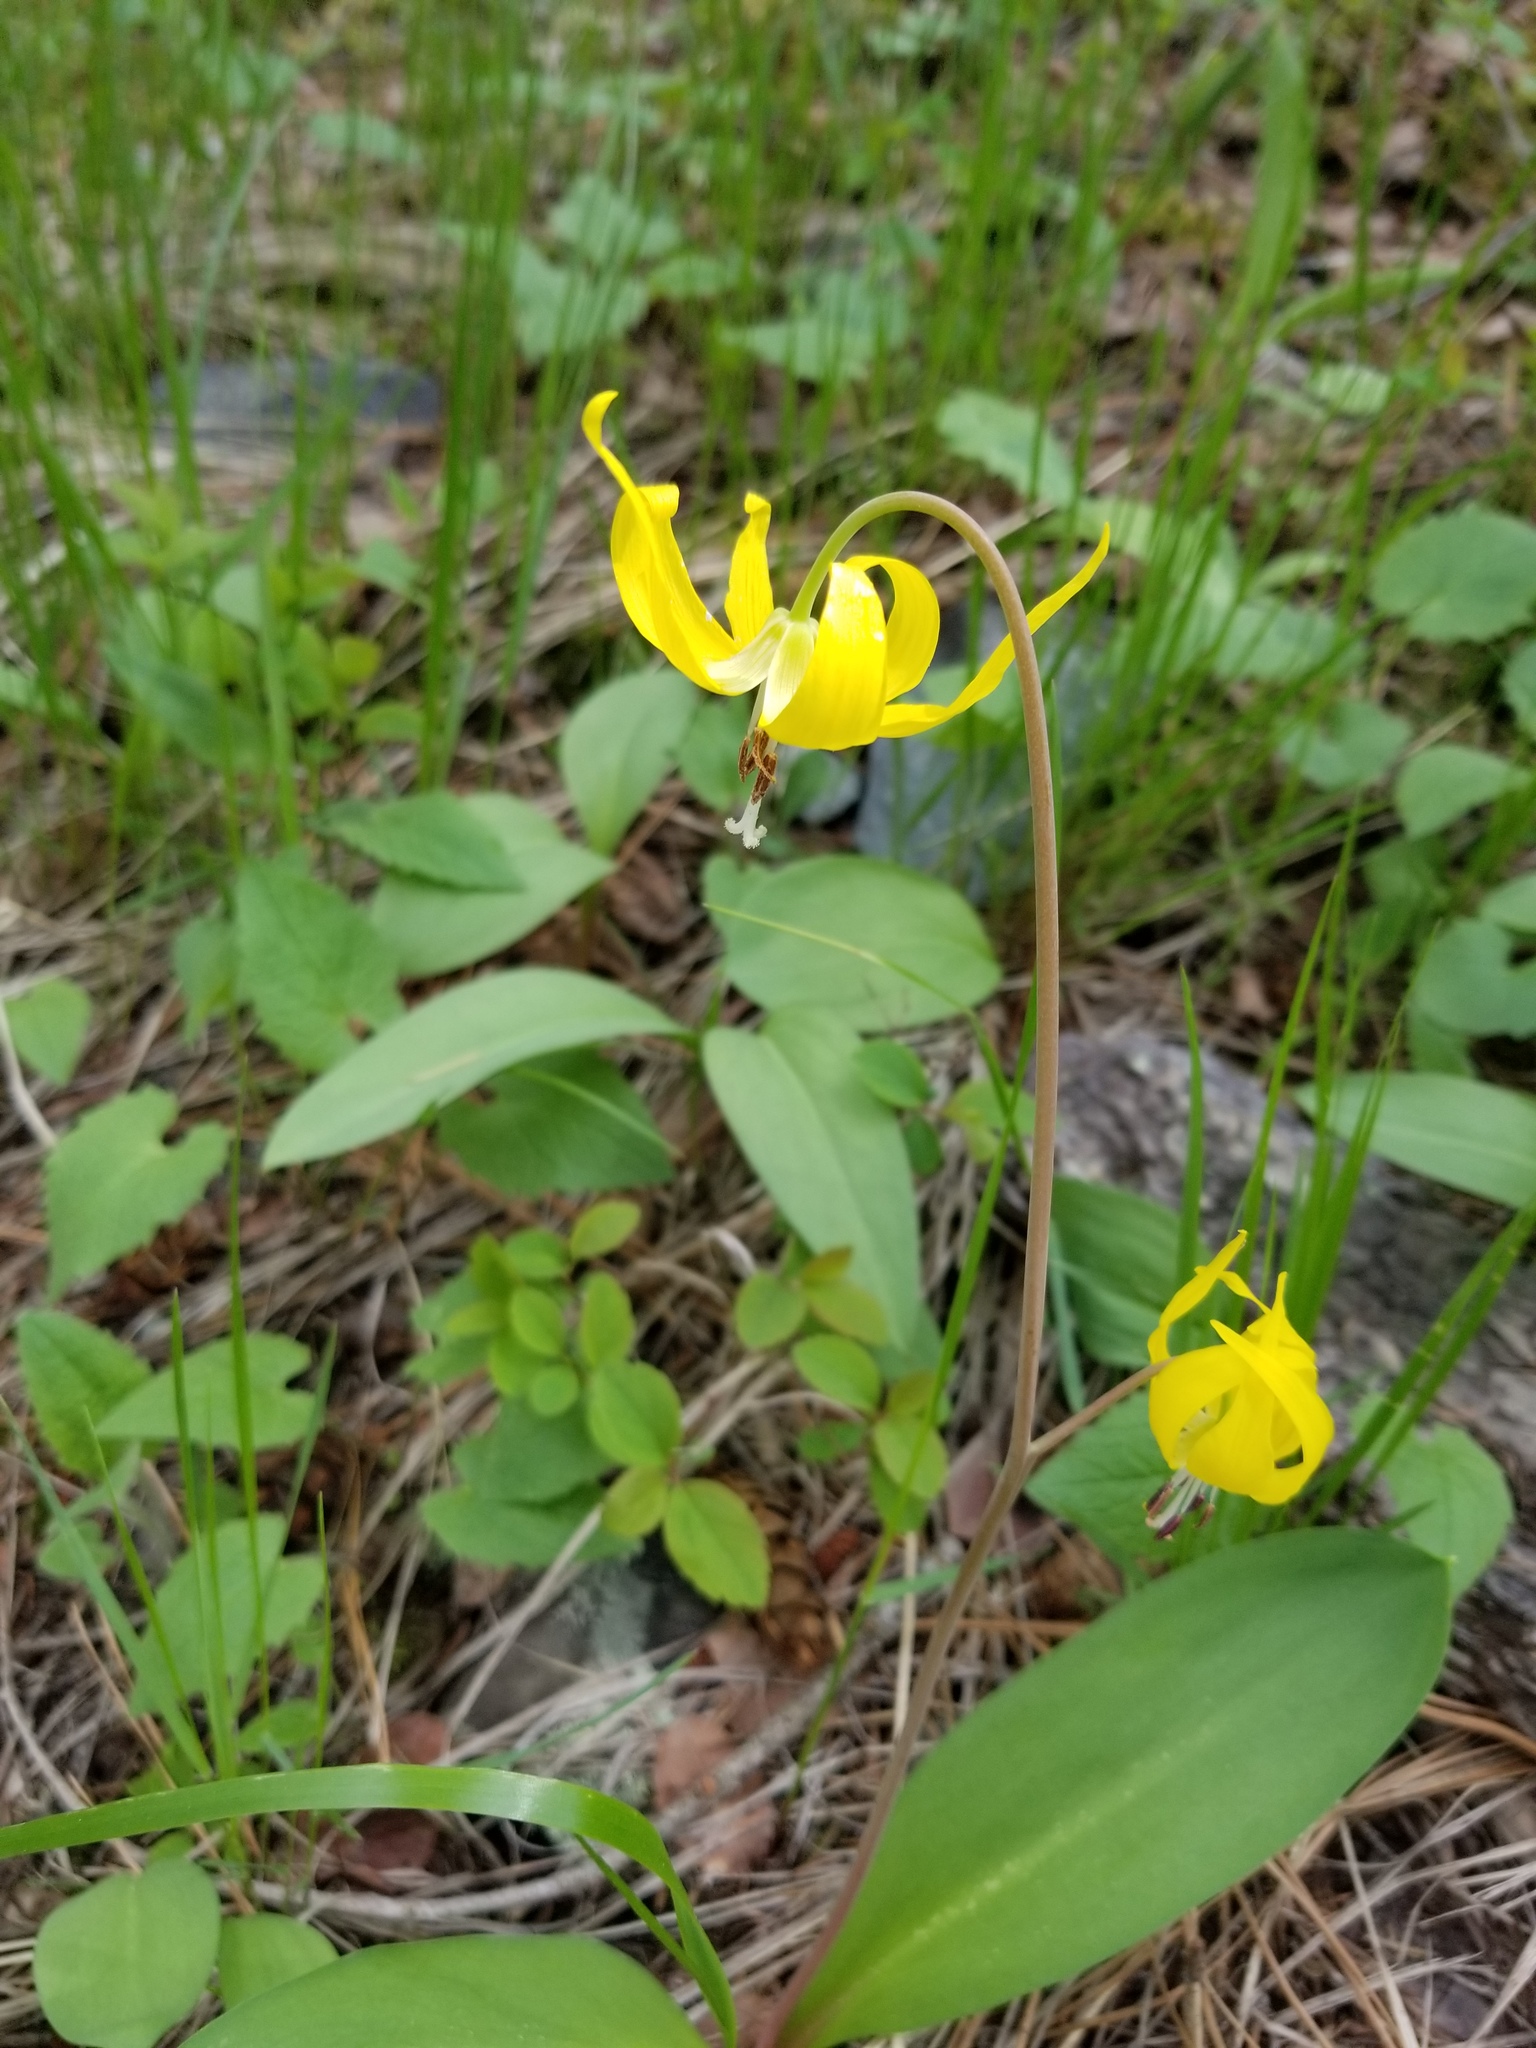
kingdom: Plantae
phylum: Tracheophyta
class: Liliopsida
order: Liliales
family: Liliaceae
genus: Erythronium
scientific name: Erythronium grandiflorum
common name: Avalanche-lily
